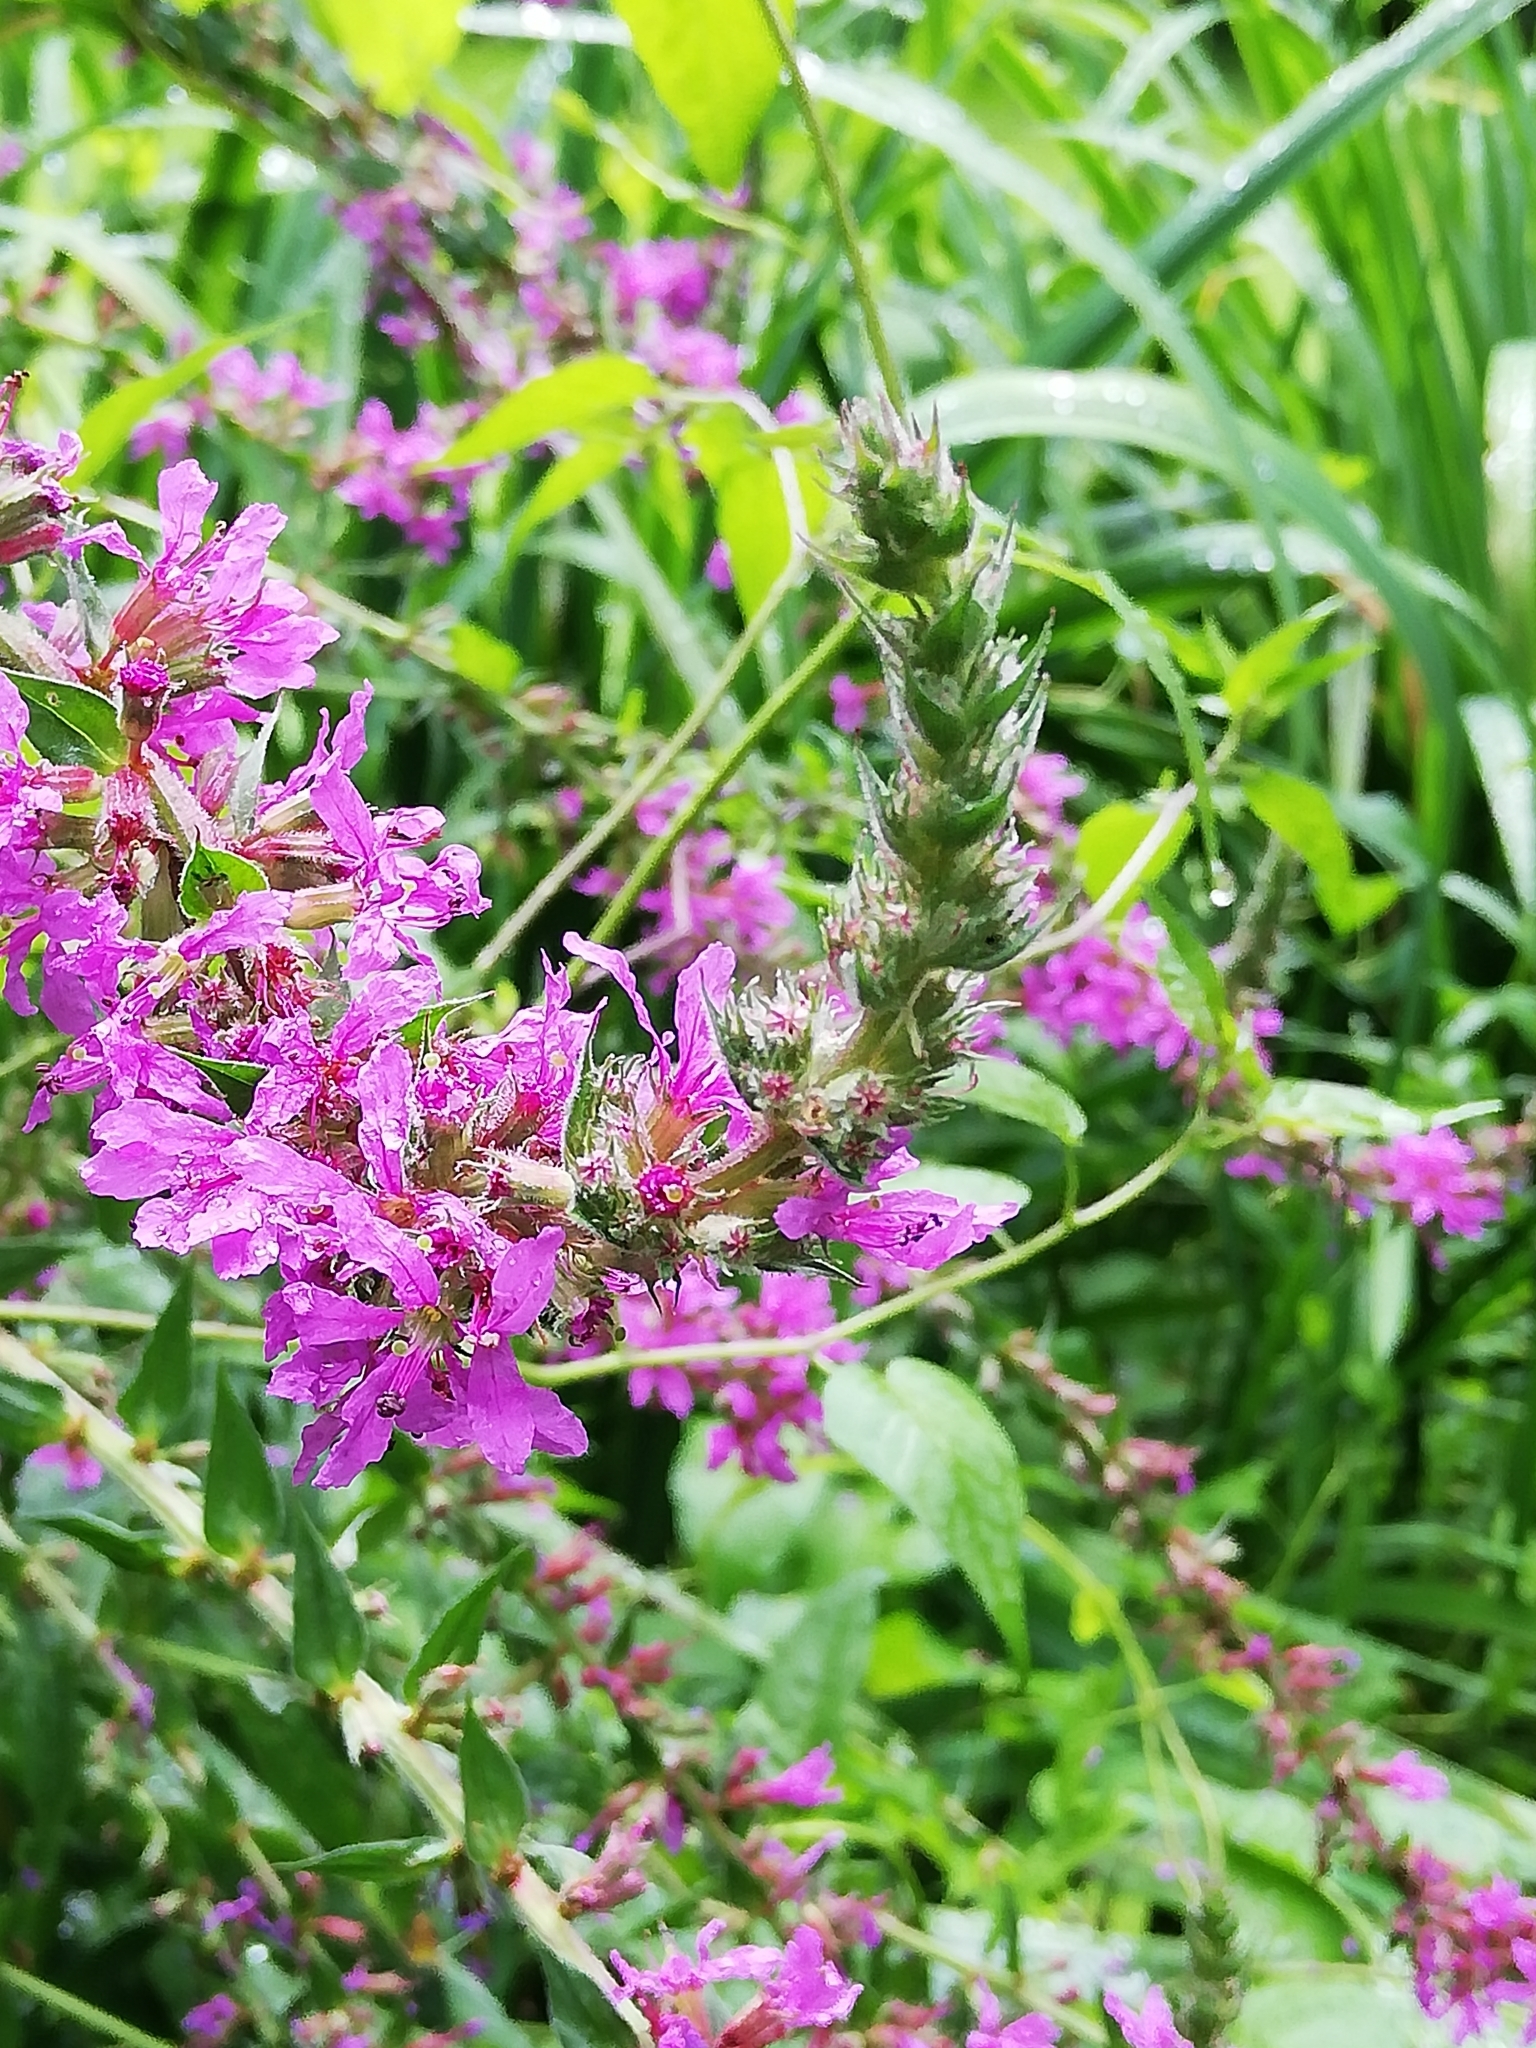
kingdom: Plantae
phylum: Tracheophyta
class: Magnoliopsida
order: Myrtales
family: Lythraceae
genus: Lythrum
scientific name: Lythrum salicaria
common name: Purple loosestrife
